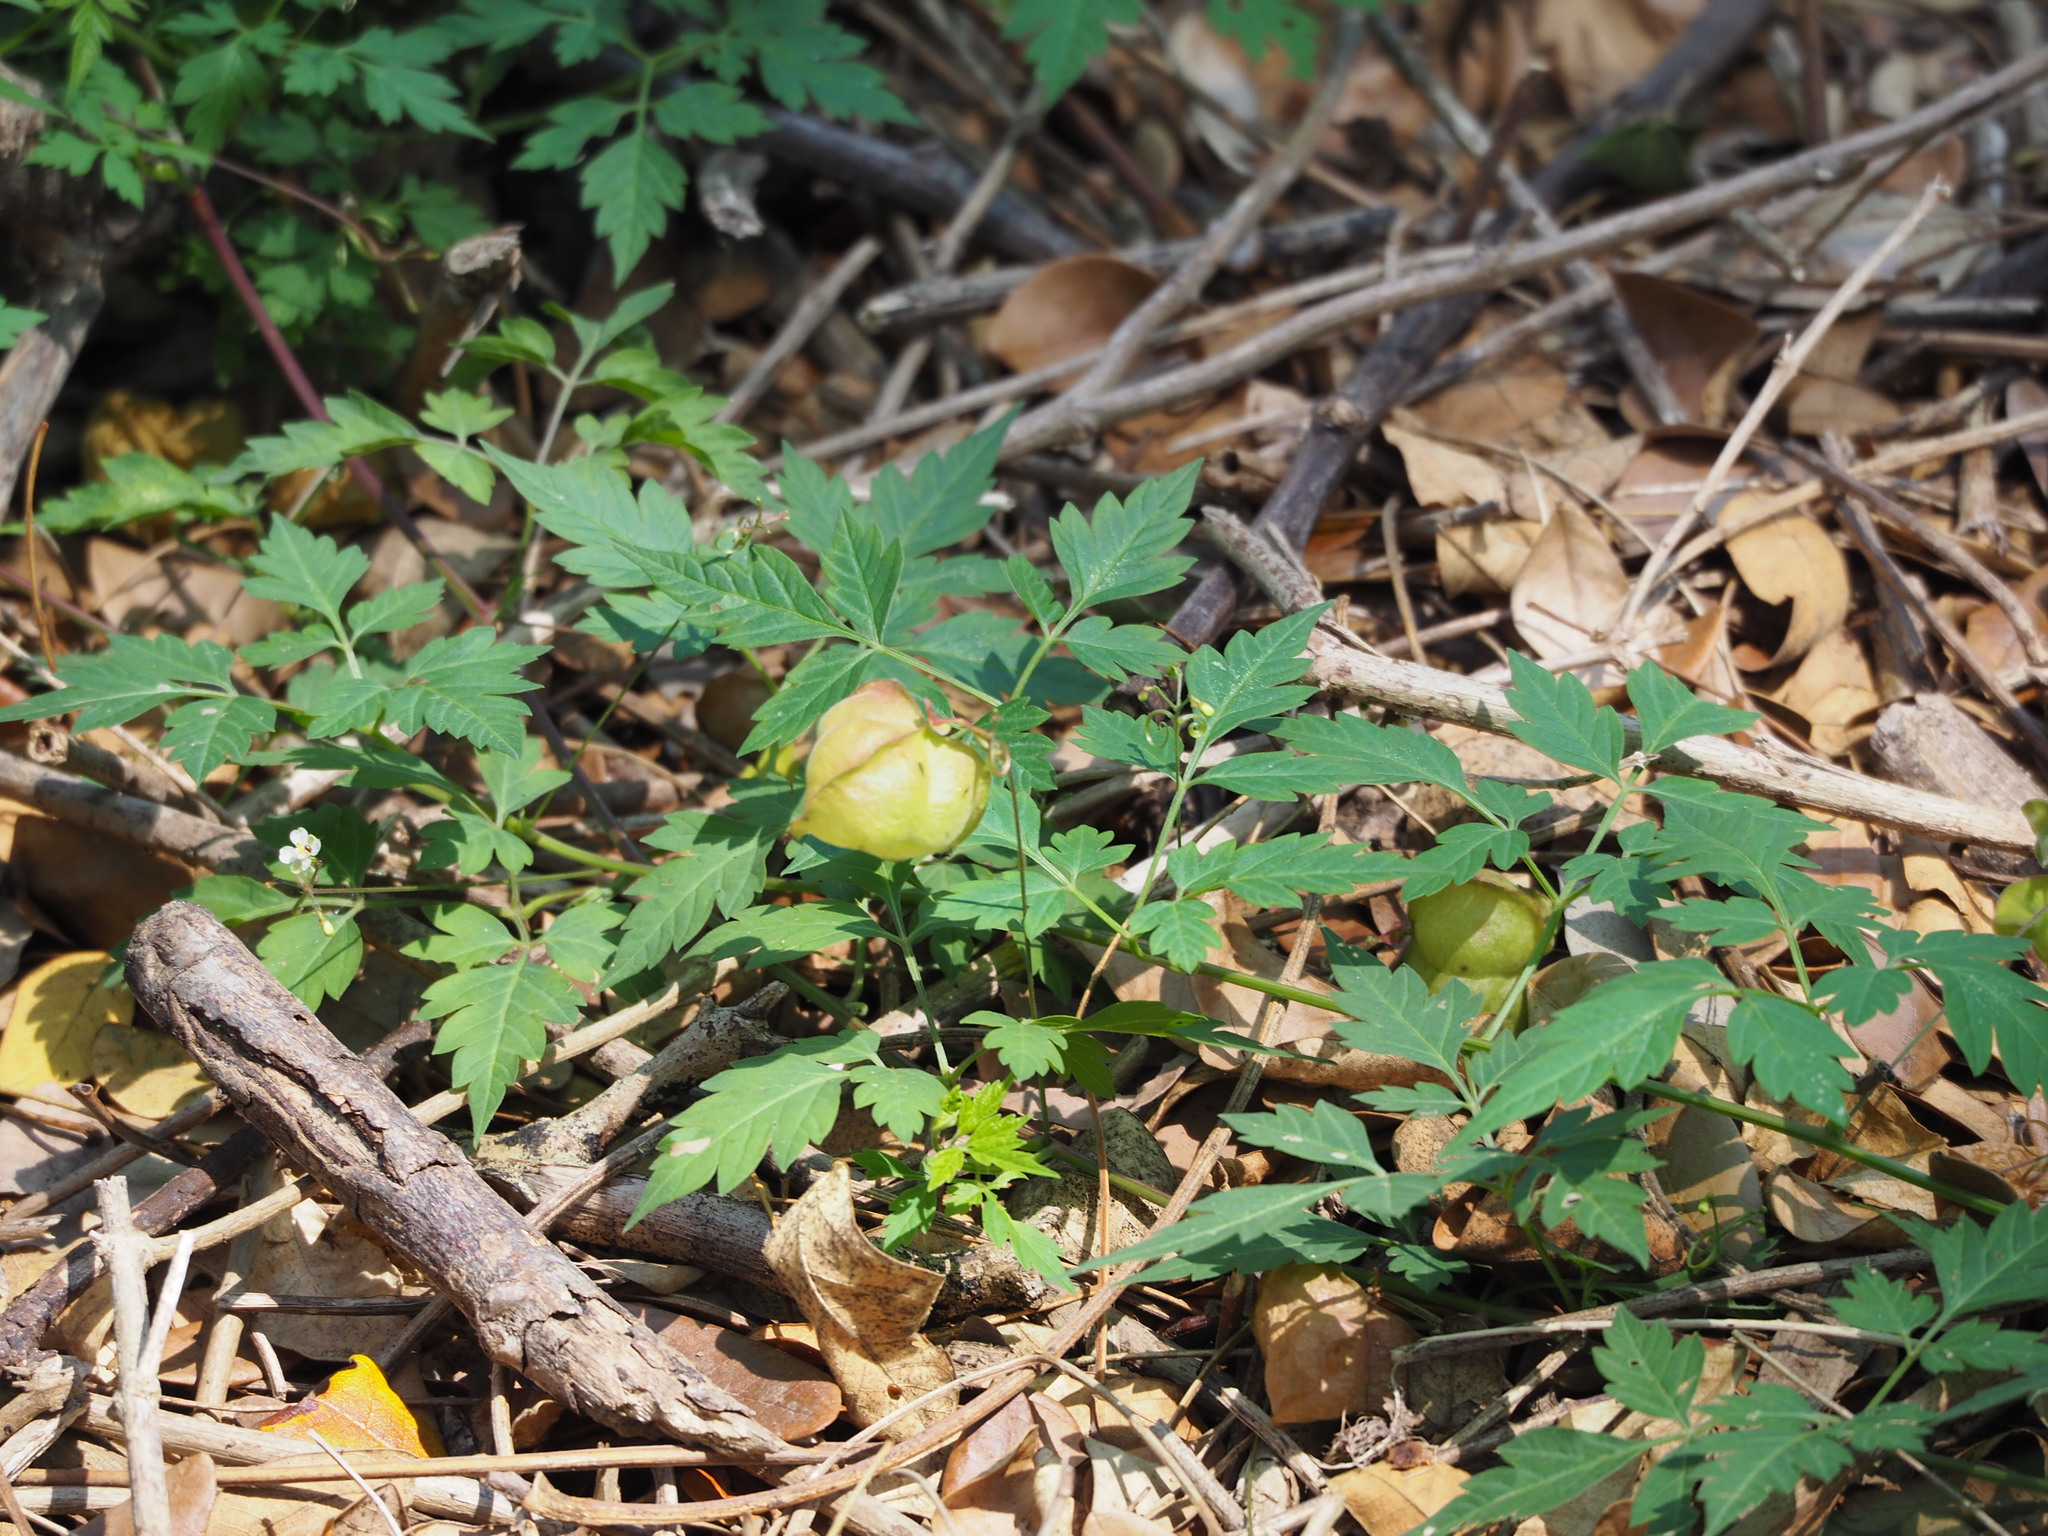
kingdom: Plantae
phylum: Tracheophyta
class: Magnoliopsida
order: Sapindales
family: Sapindaceae
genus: Cardiospermum
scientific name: Cardiospermum halicacabum
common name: Balloon vine
